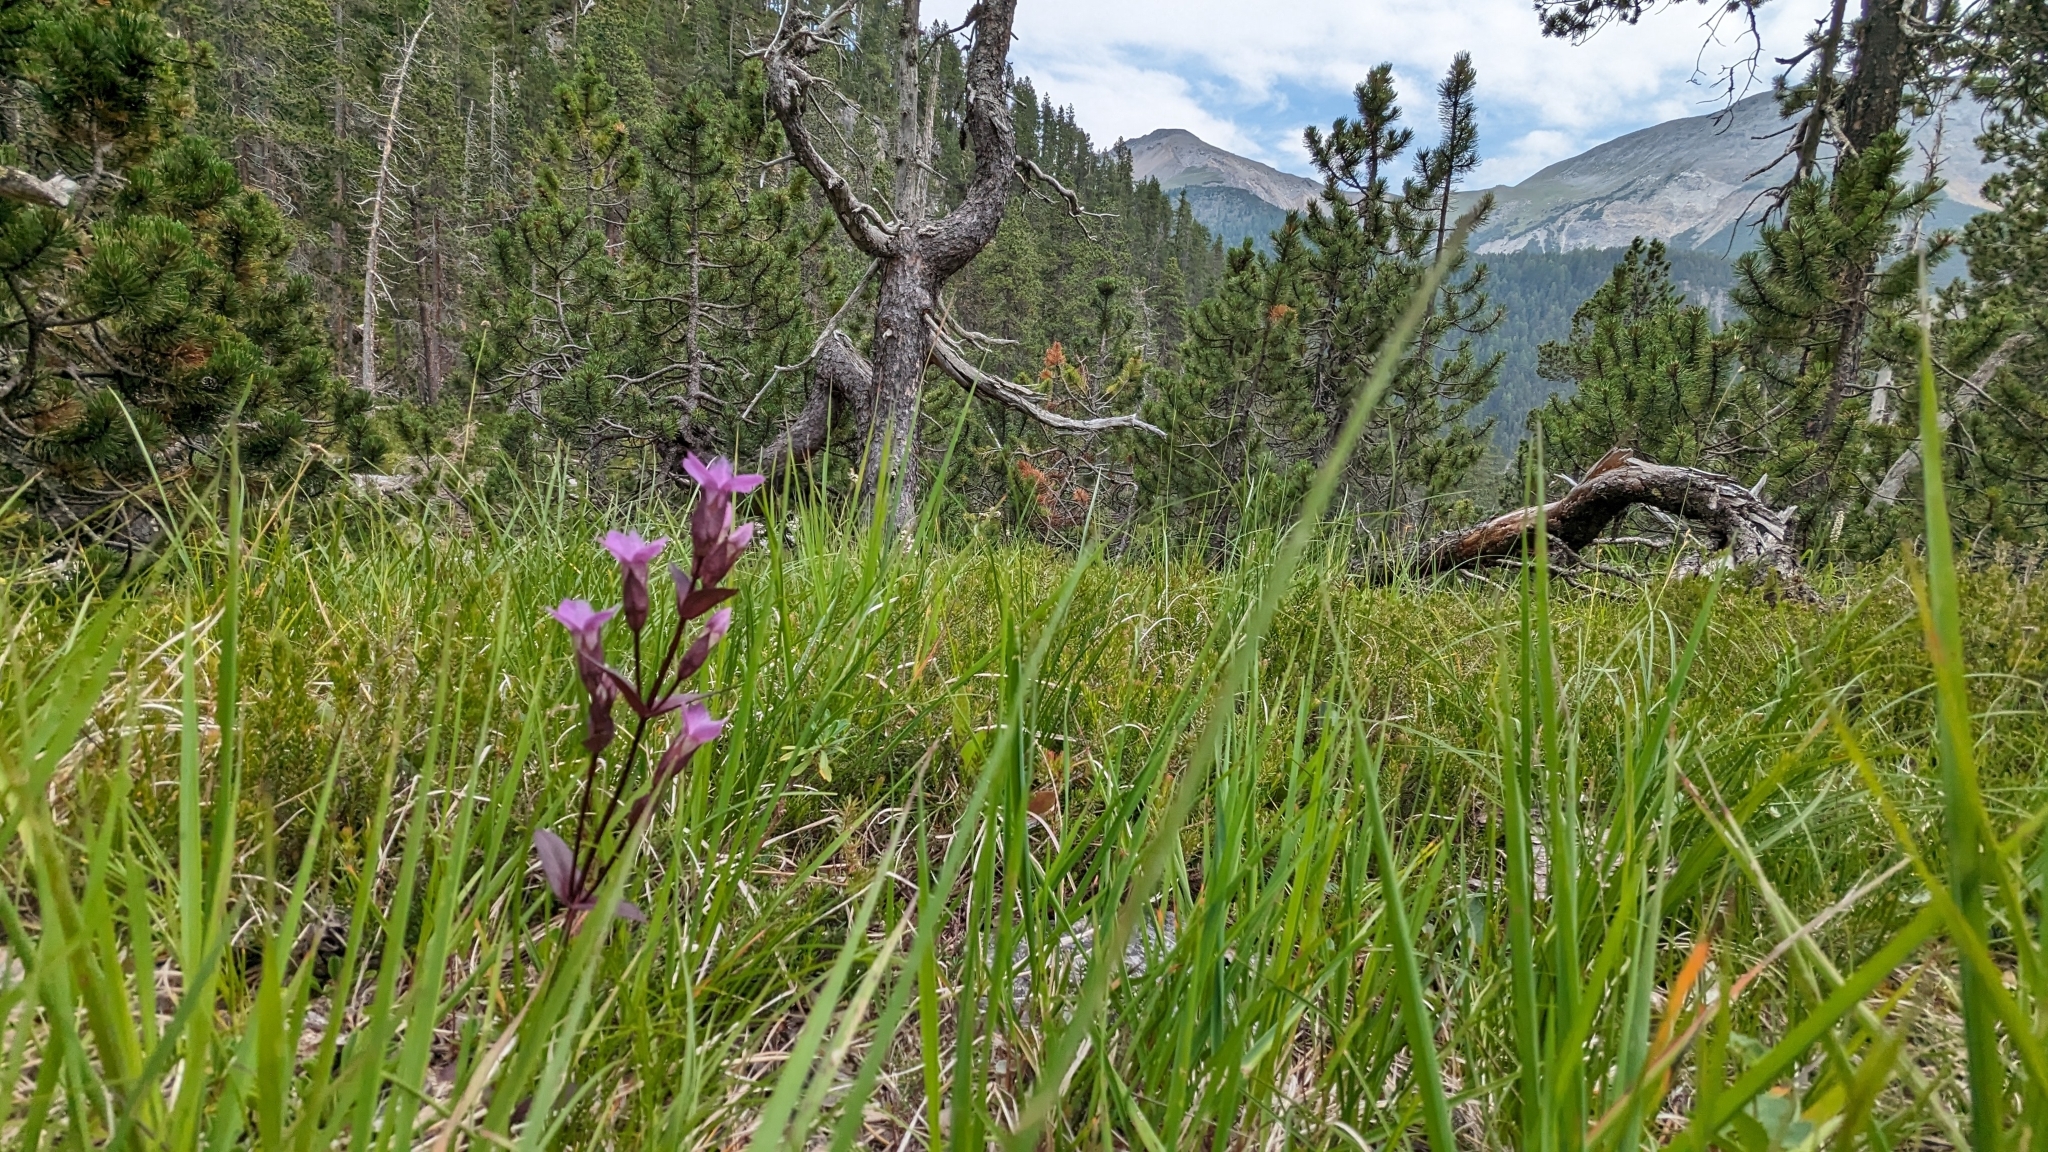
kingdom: Plantae
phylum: Tracheophyta
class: Magnoliopsida
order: Gentianales
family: Gentianaceae
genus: Gentianella
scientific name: Gentianella campestris
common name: Field gentian
